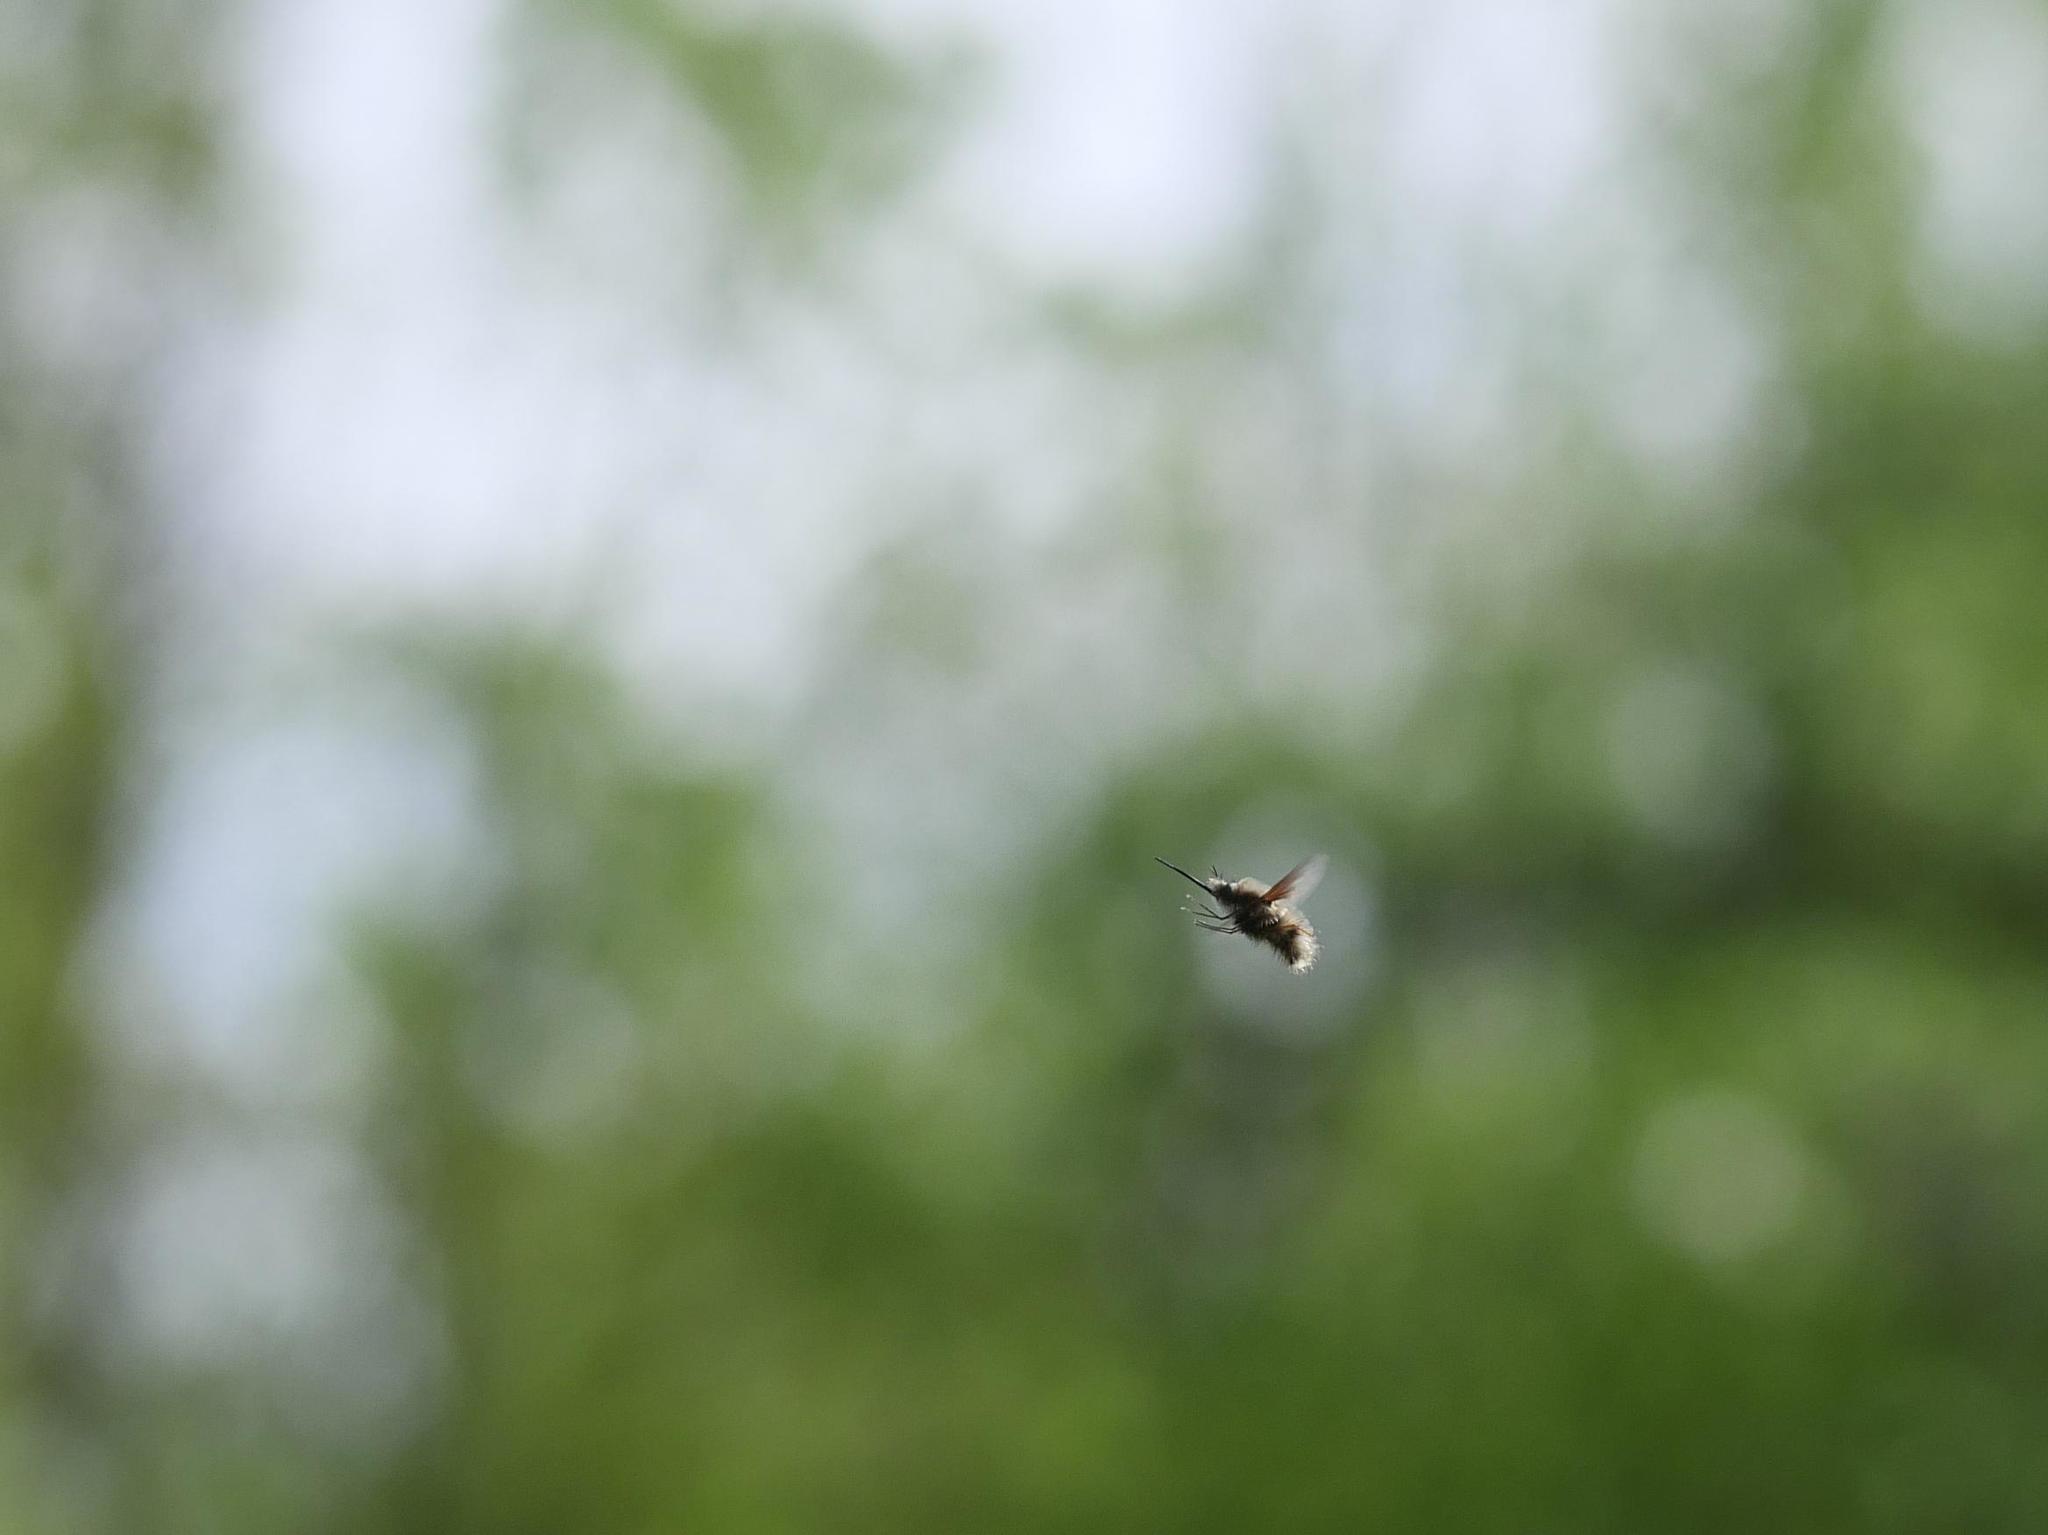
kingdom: Animalia
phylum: Arthropoda
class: Insecta
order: Diptera
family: Bombyliidae
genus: Bombylius
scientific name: Bombylius major
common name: Bee fly
